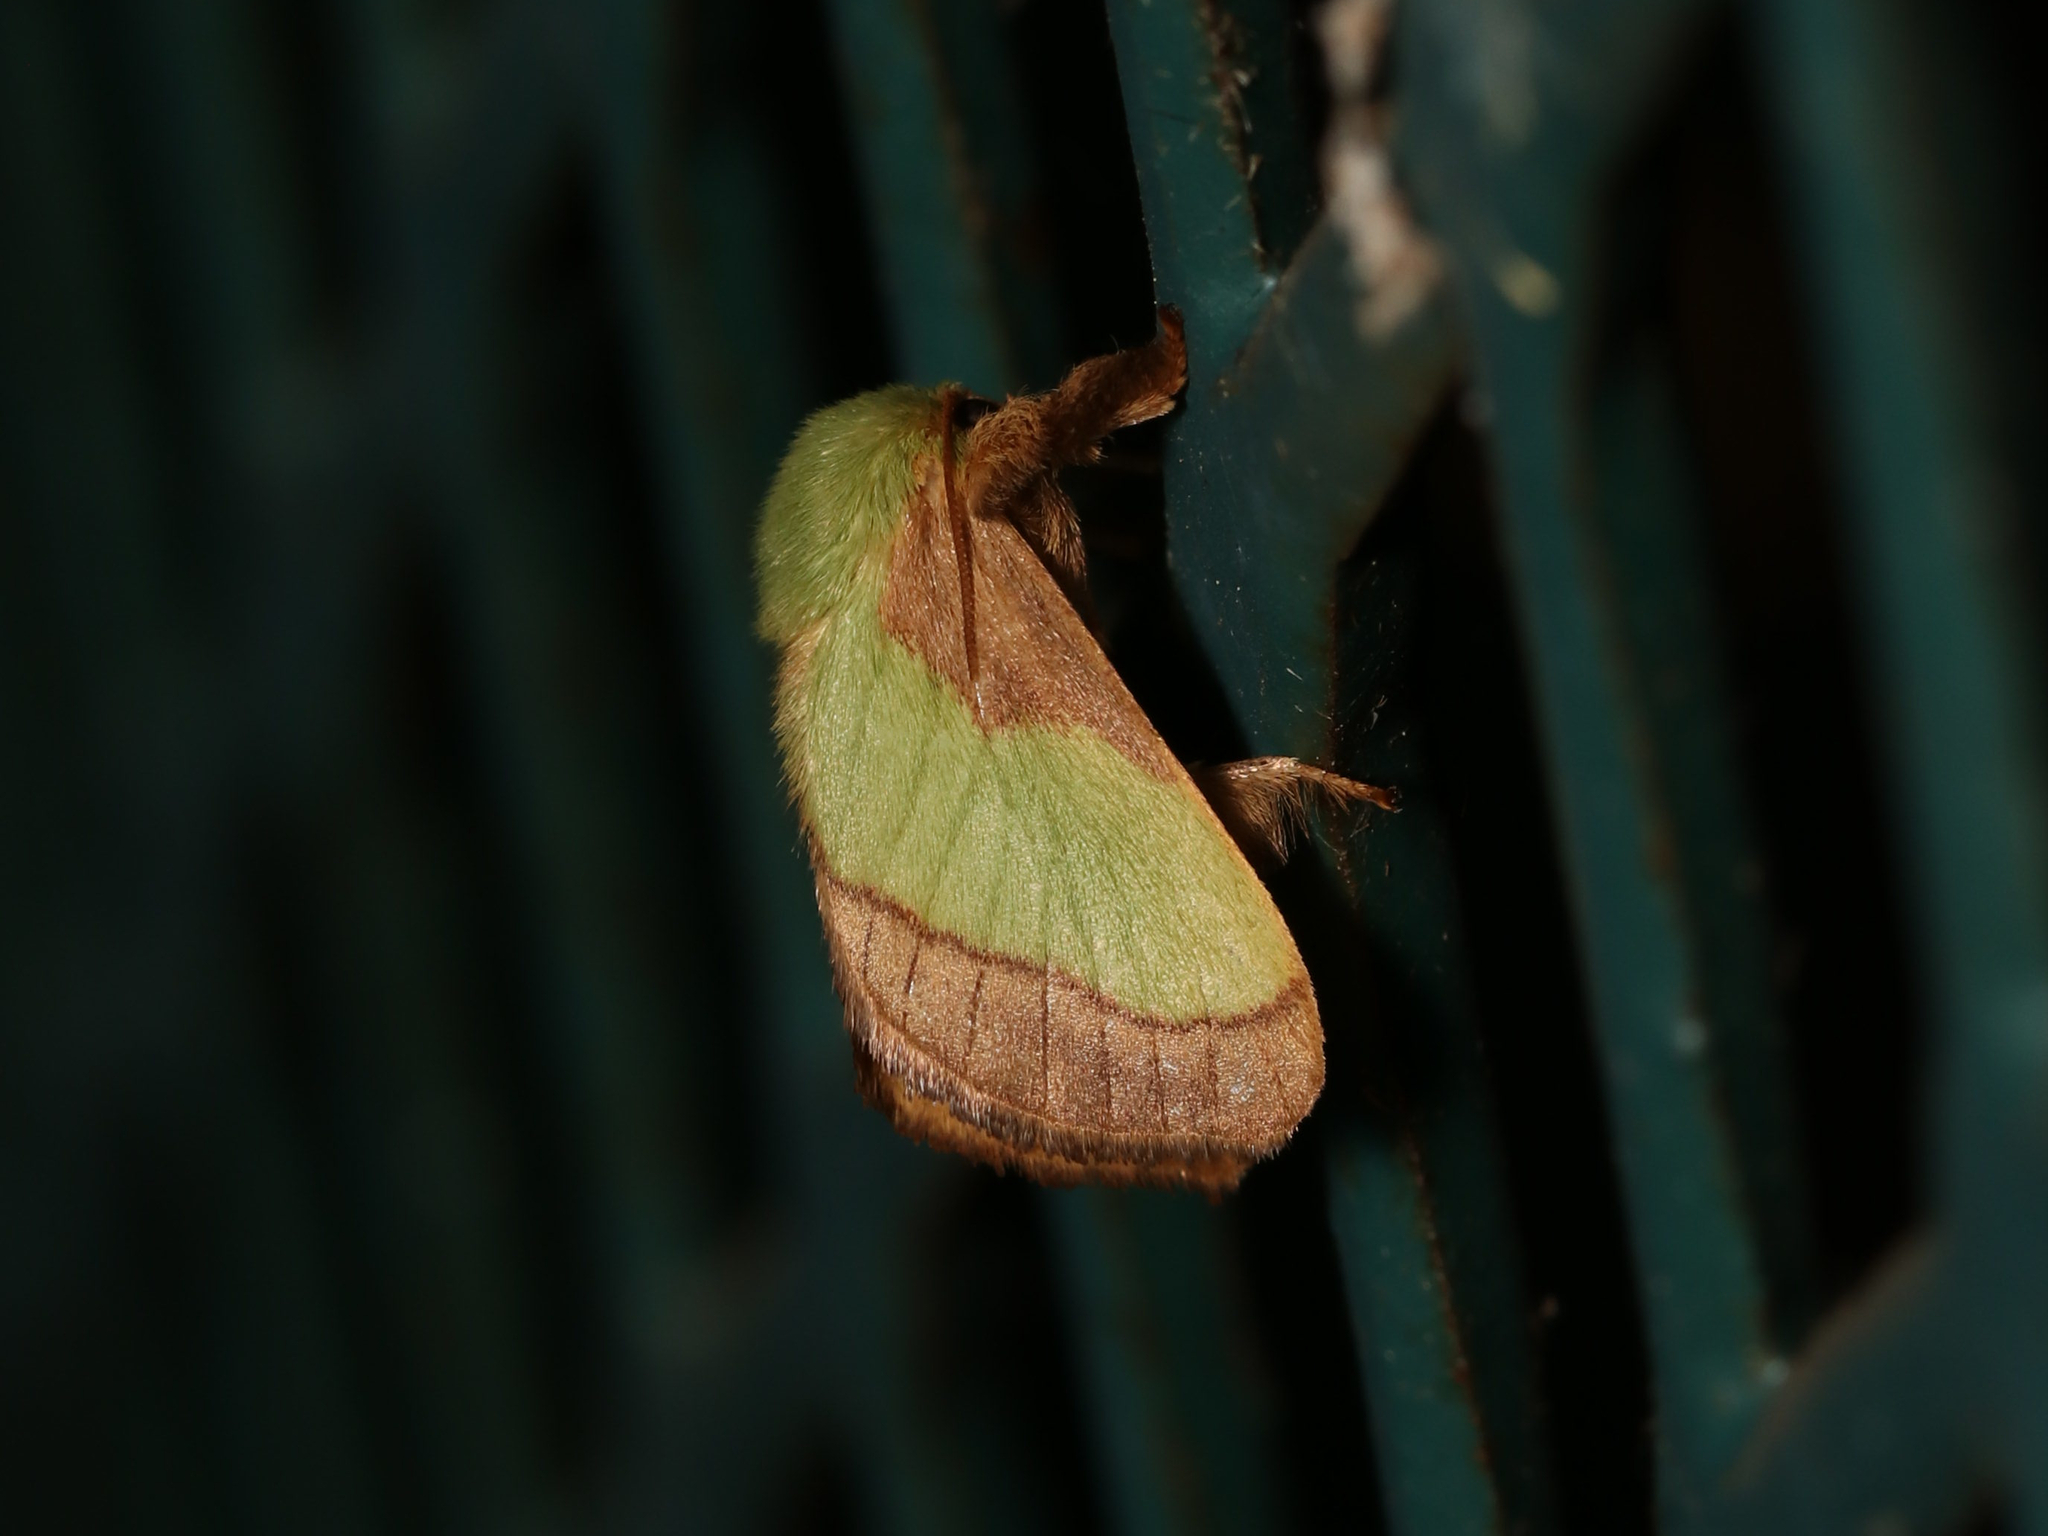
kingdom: Animalia
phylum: Arthropoda
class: Insecta
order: Lepidoptera
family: Limacodidae
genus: Parasa
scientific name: Parasa chloris
